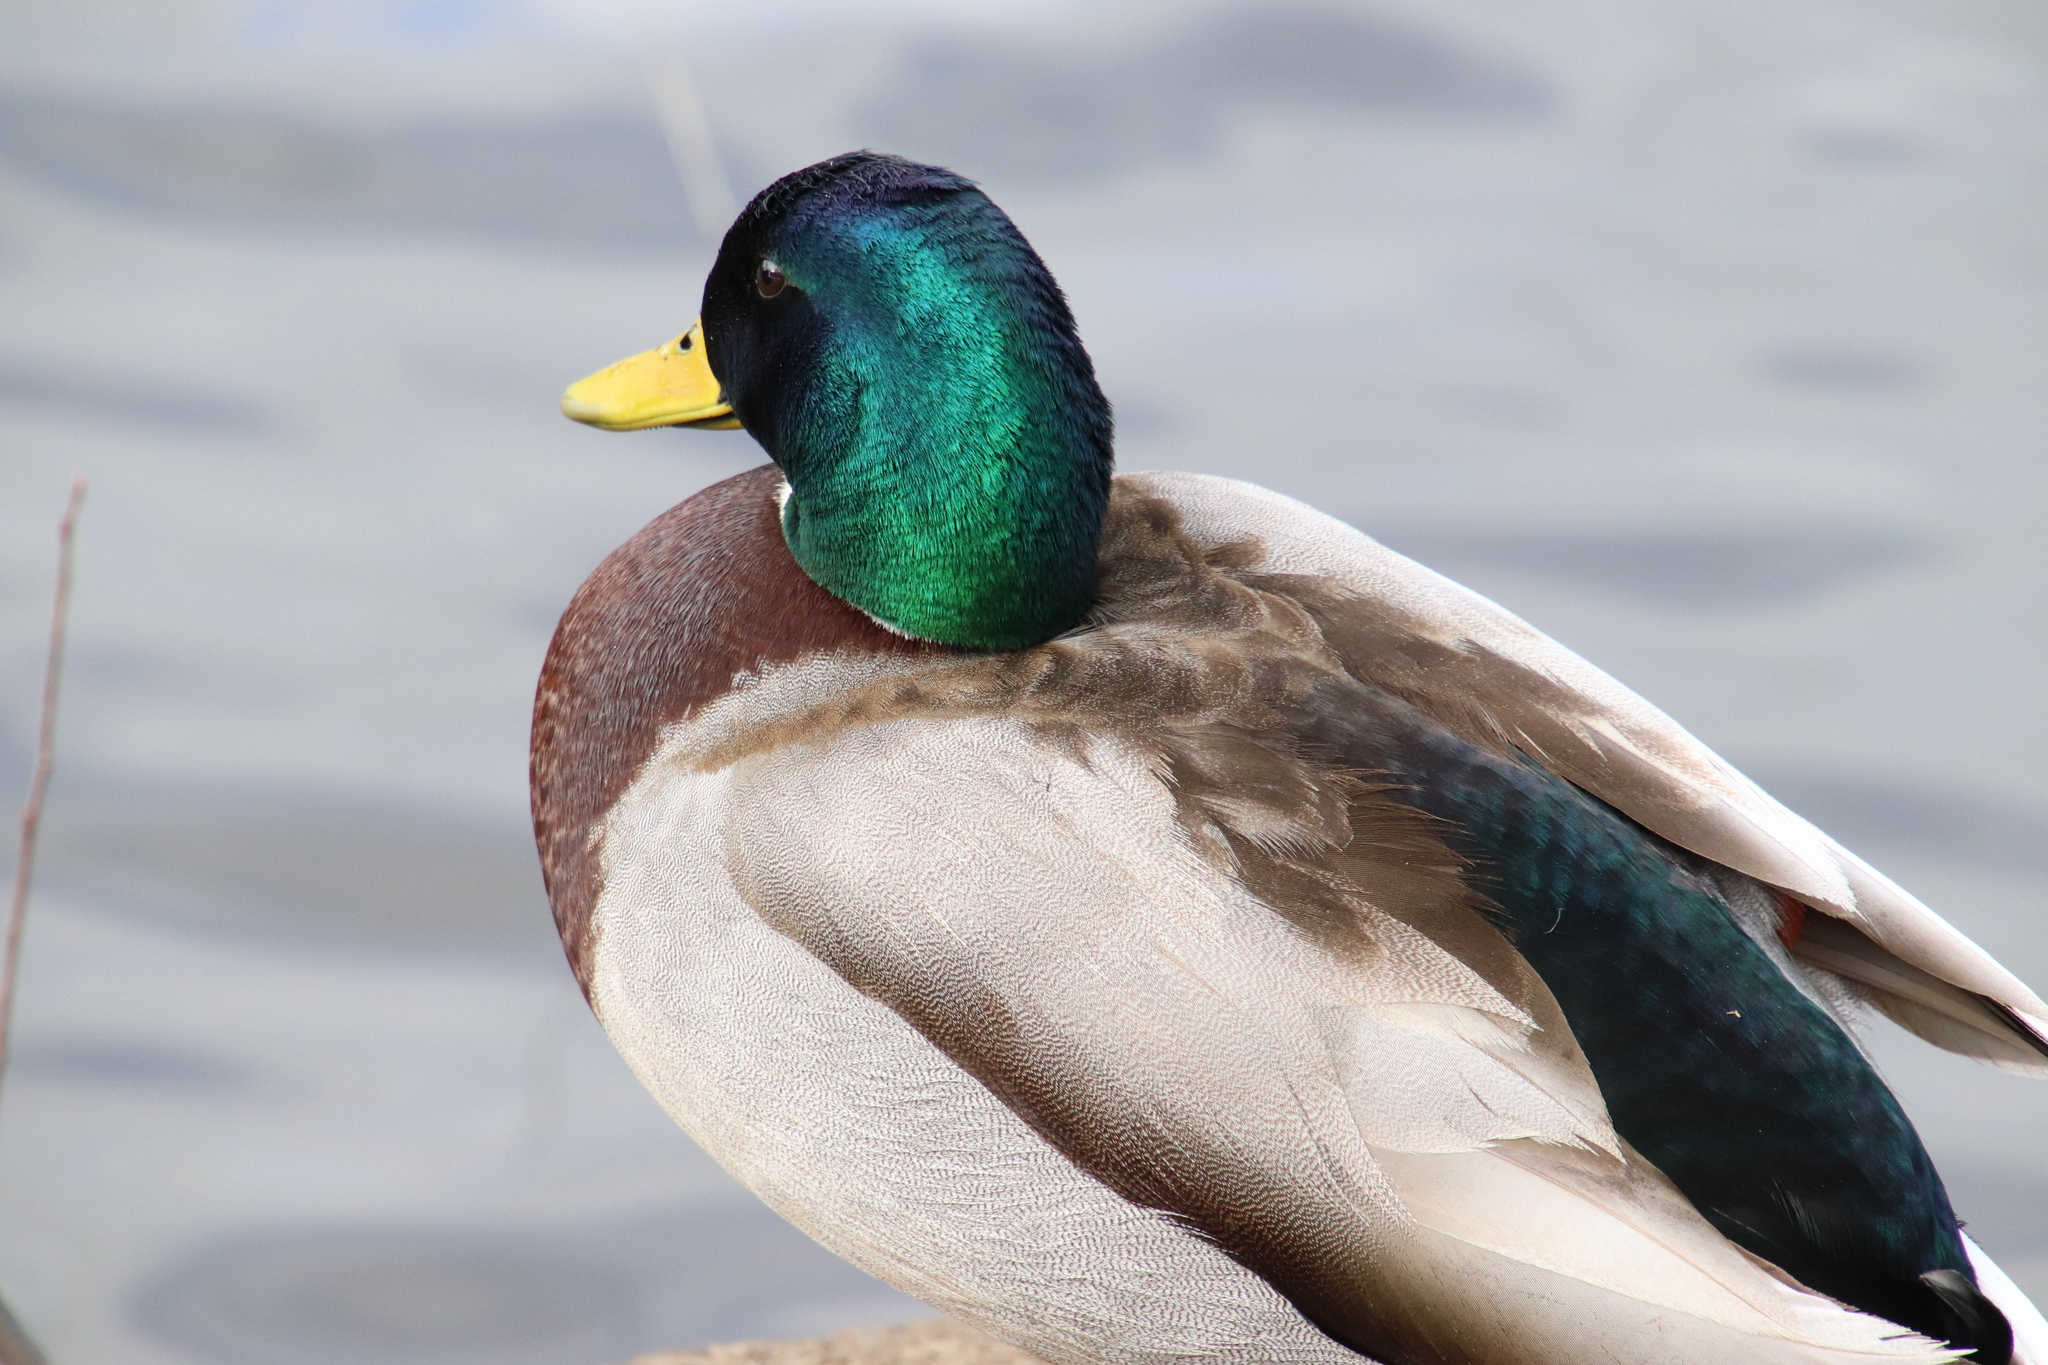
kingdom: Animalia
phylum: Chordata
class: Aves
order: Anseriformes
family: Anatidae
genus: Anas
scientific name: Anas platyrhynchos
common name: Mallard
